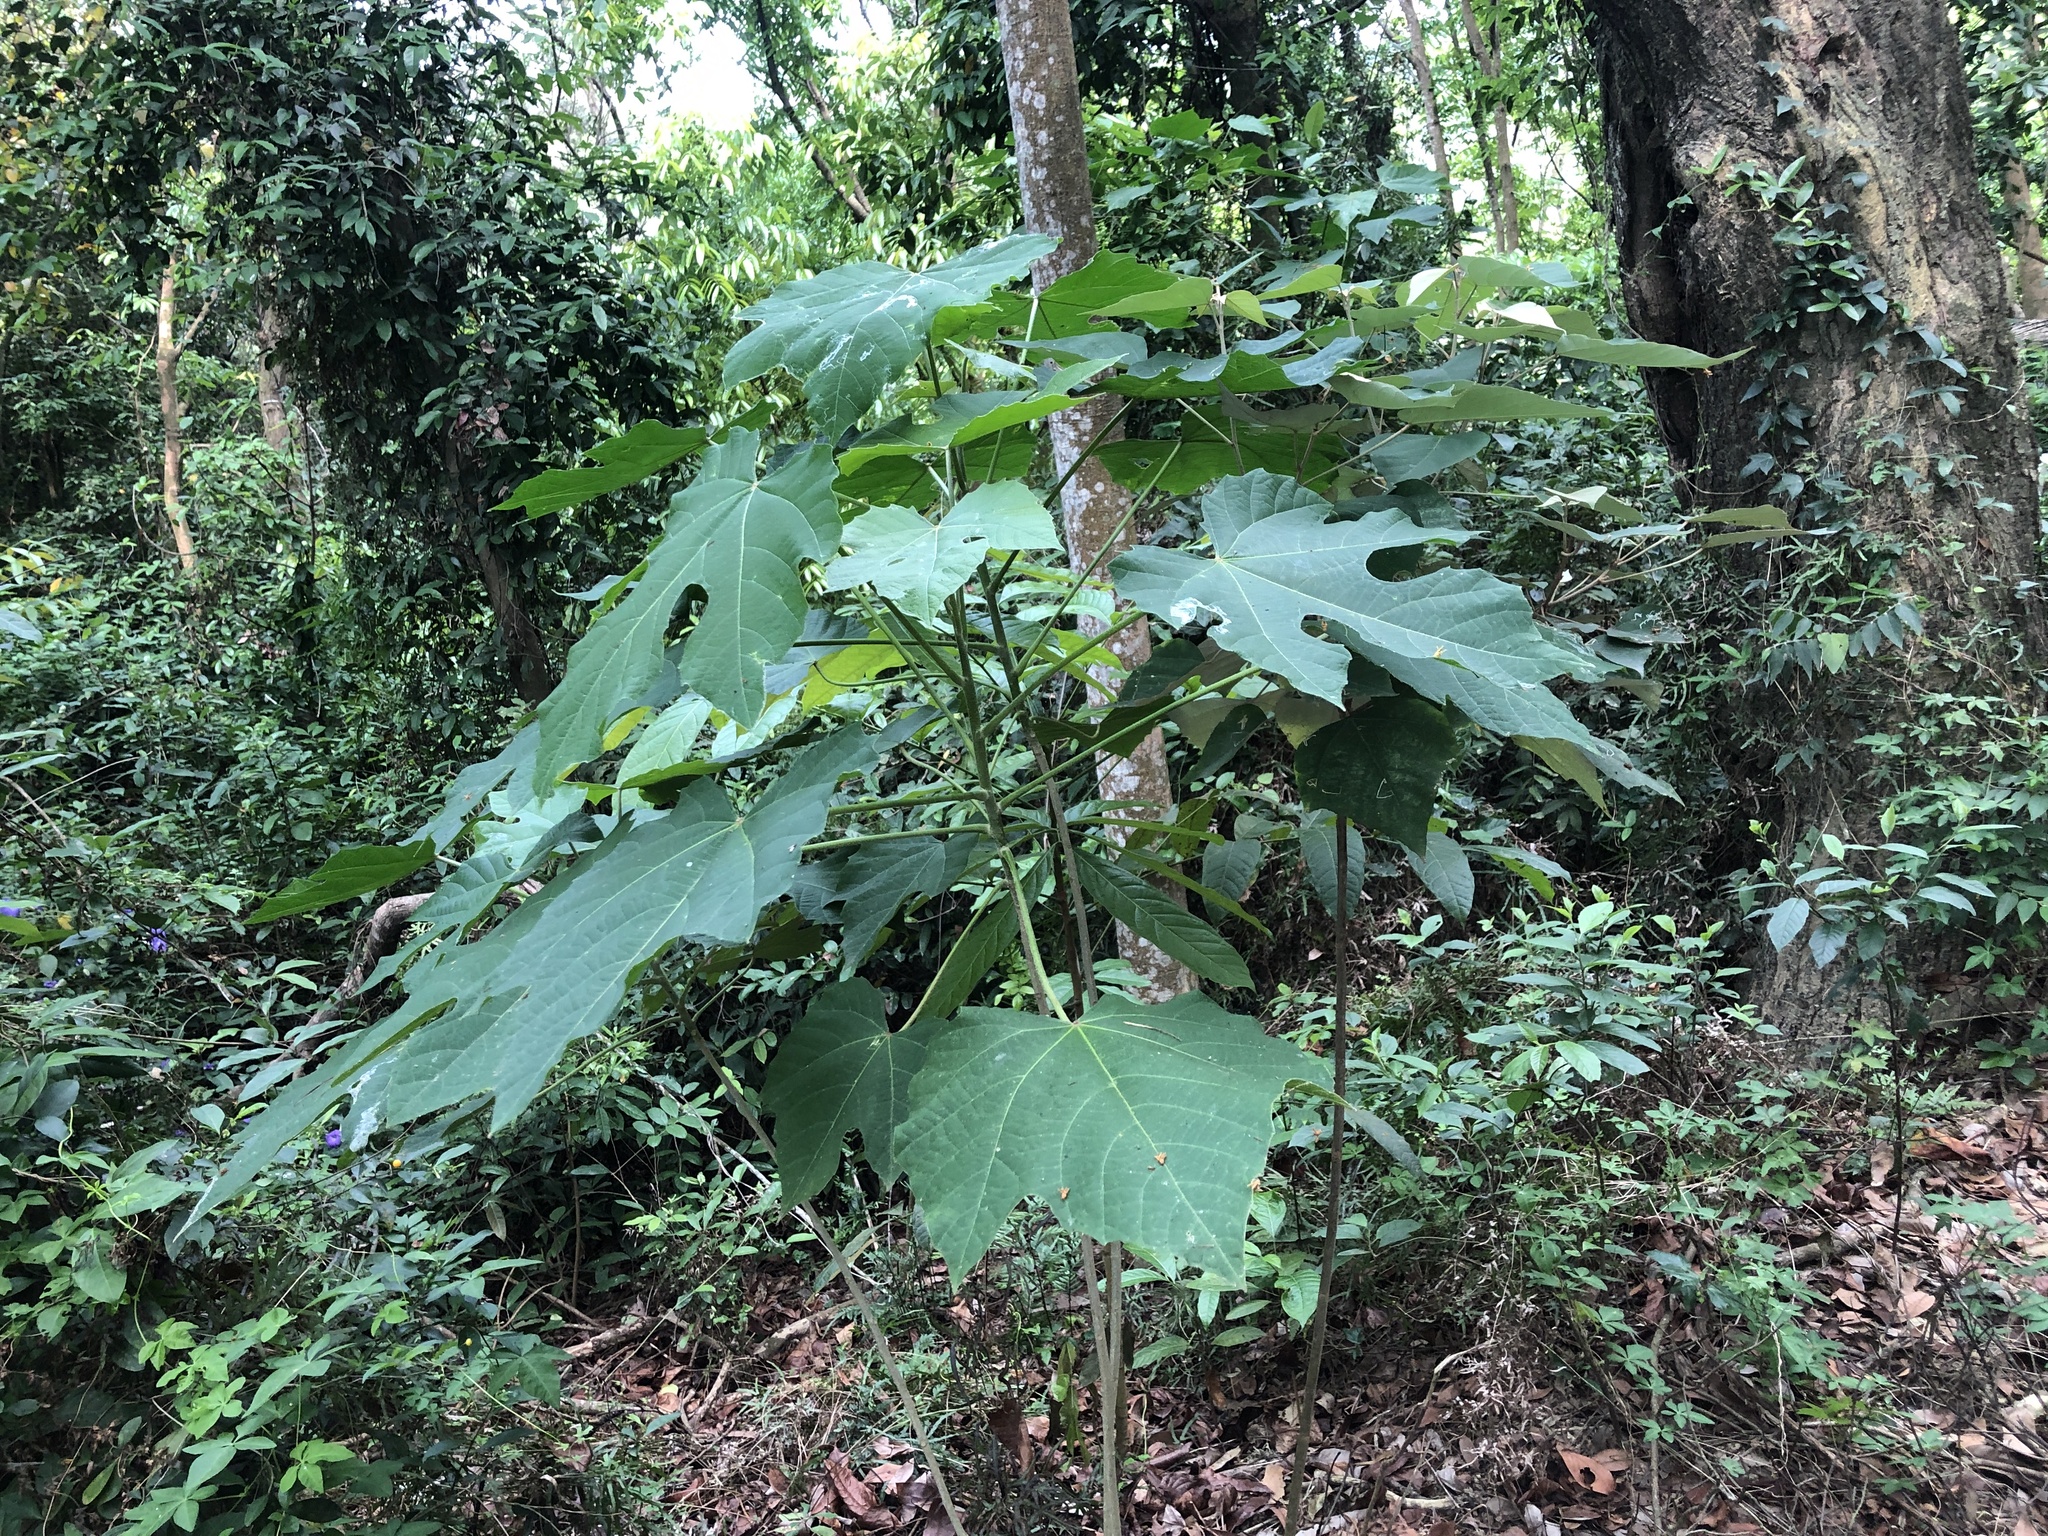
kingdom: Plantae
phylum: Tracheophyta
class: Magnoliopsida
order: Malpighiales
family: Euphorbiaceae
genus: Melanolepis
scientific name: Melanolepis multiglandulosa
